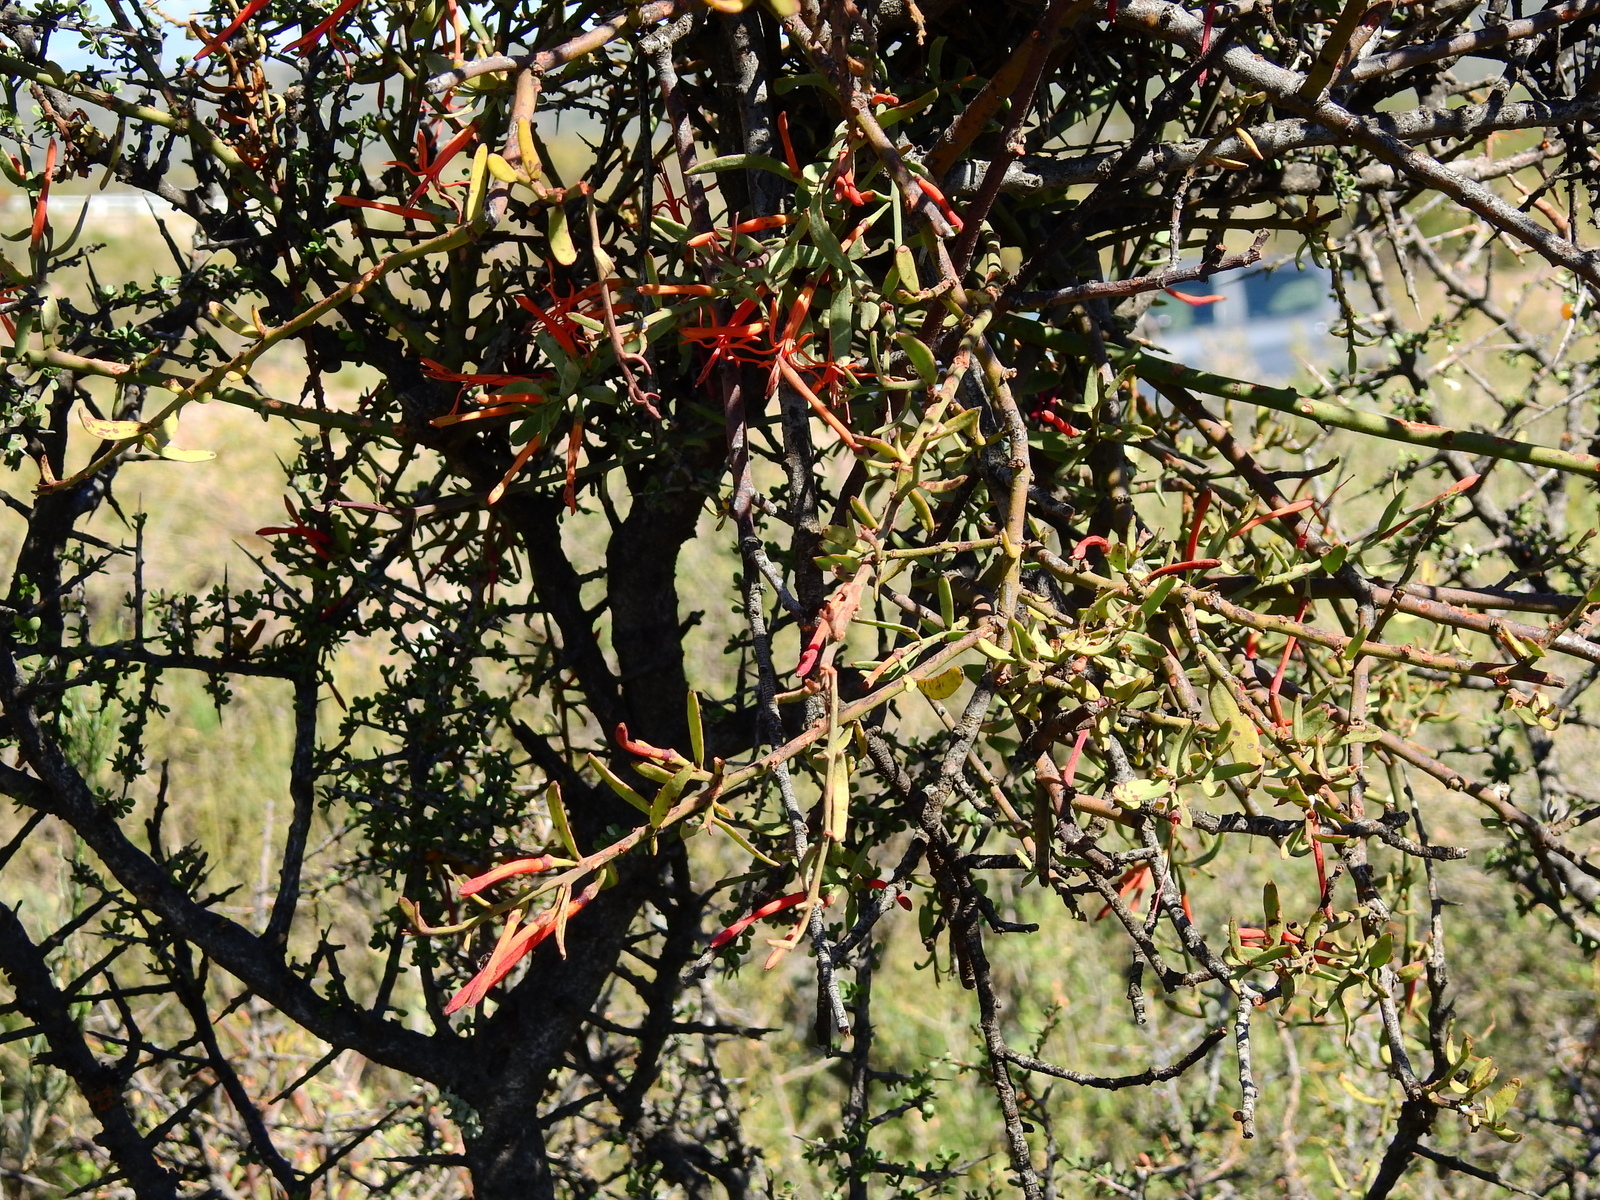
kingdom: Plantae
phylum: Tracheophyta
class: Magnoliopsida
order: Santalales
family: Loranthaceae
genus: Ligaria
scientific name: Ligaria cuneifolia
